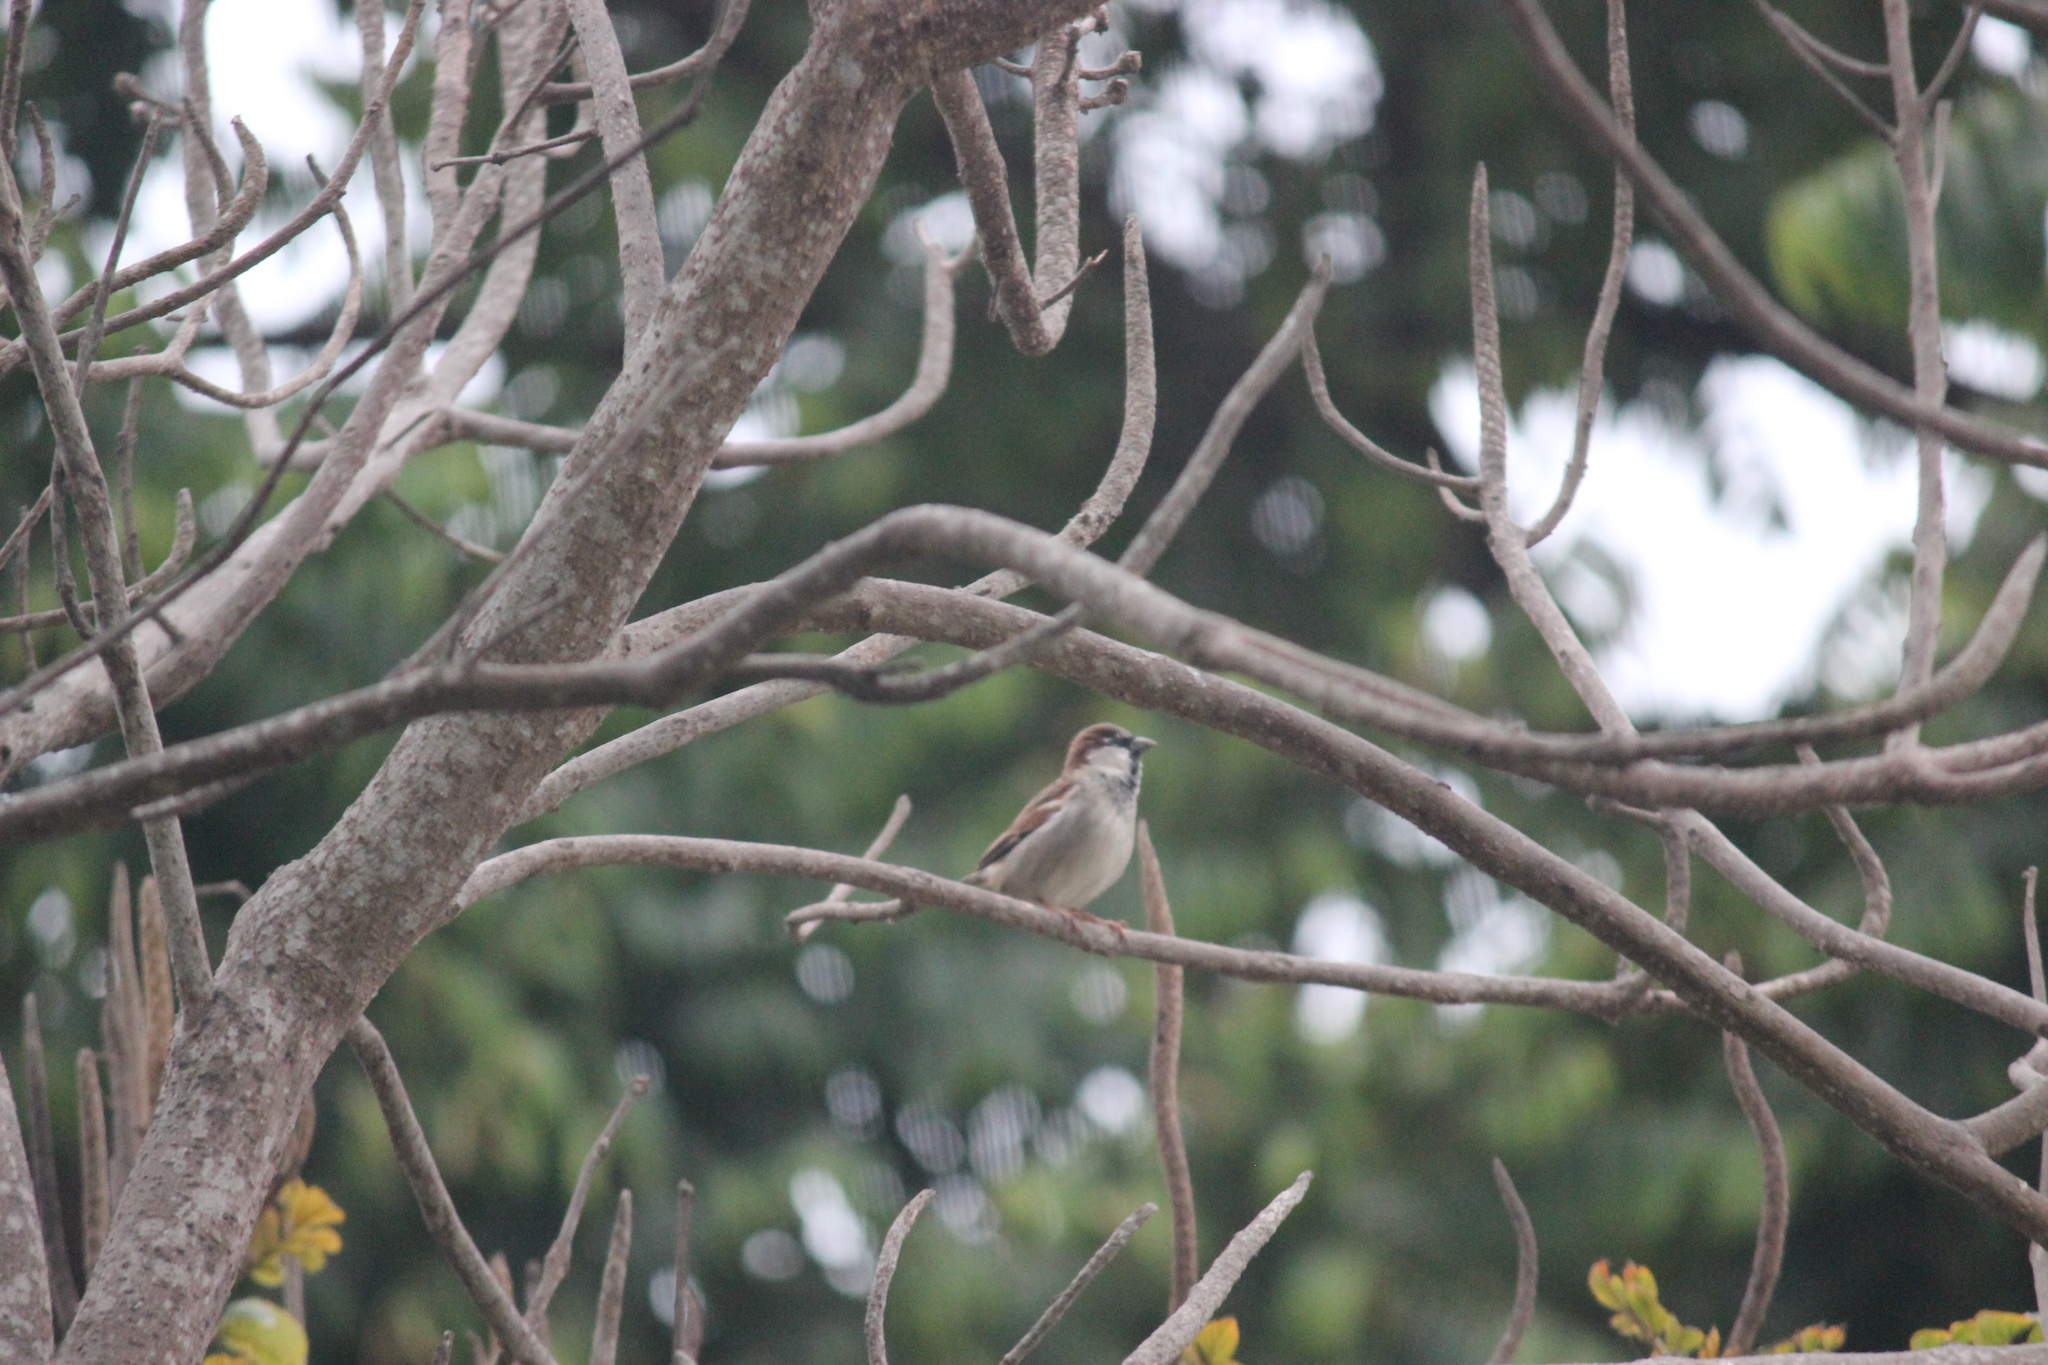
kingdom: Animalia
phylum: Chordata
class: Aves
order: Passeriformes
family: Passeridae
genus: Passer
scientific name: Passer domesticus
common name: House sparrow
